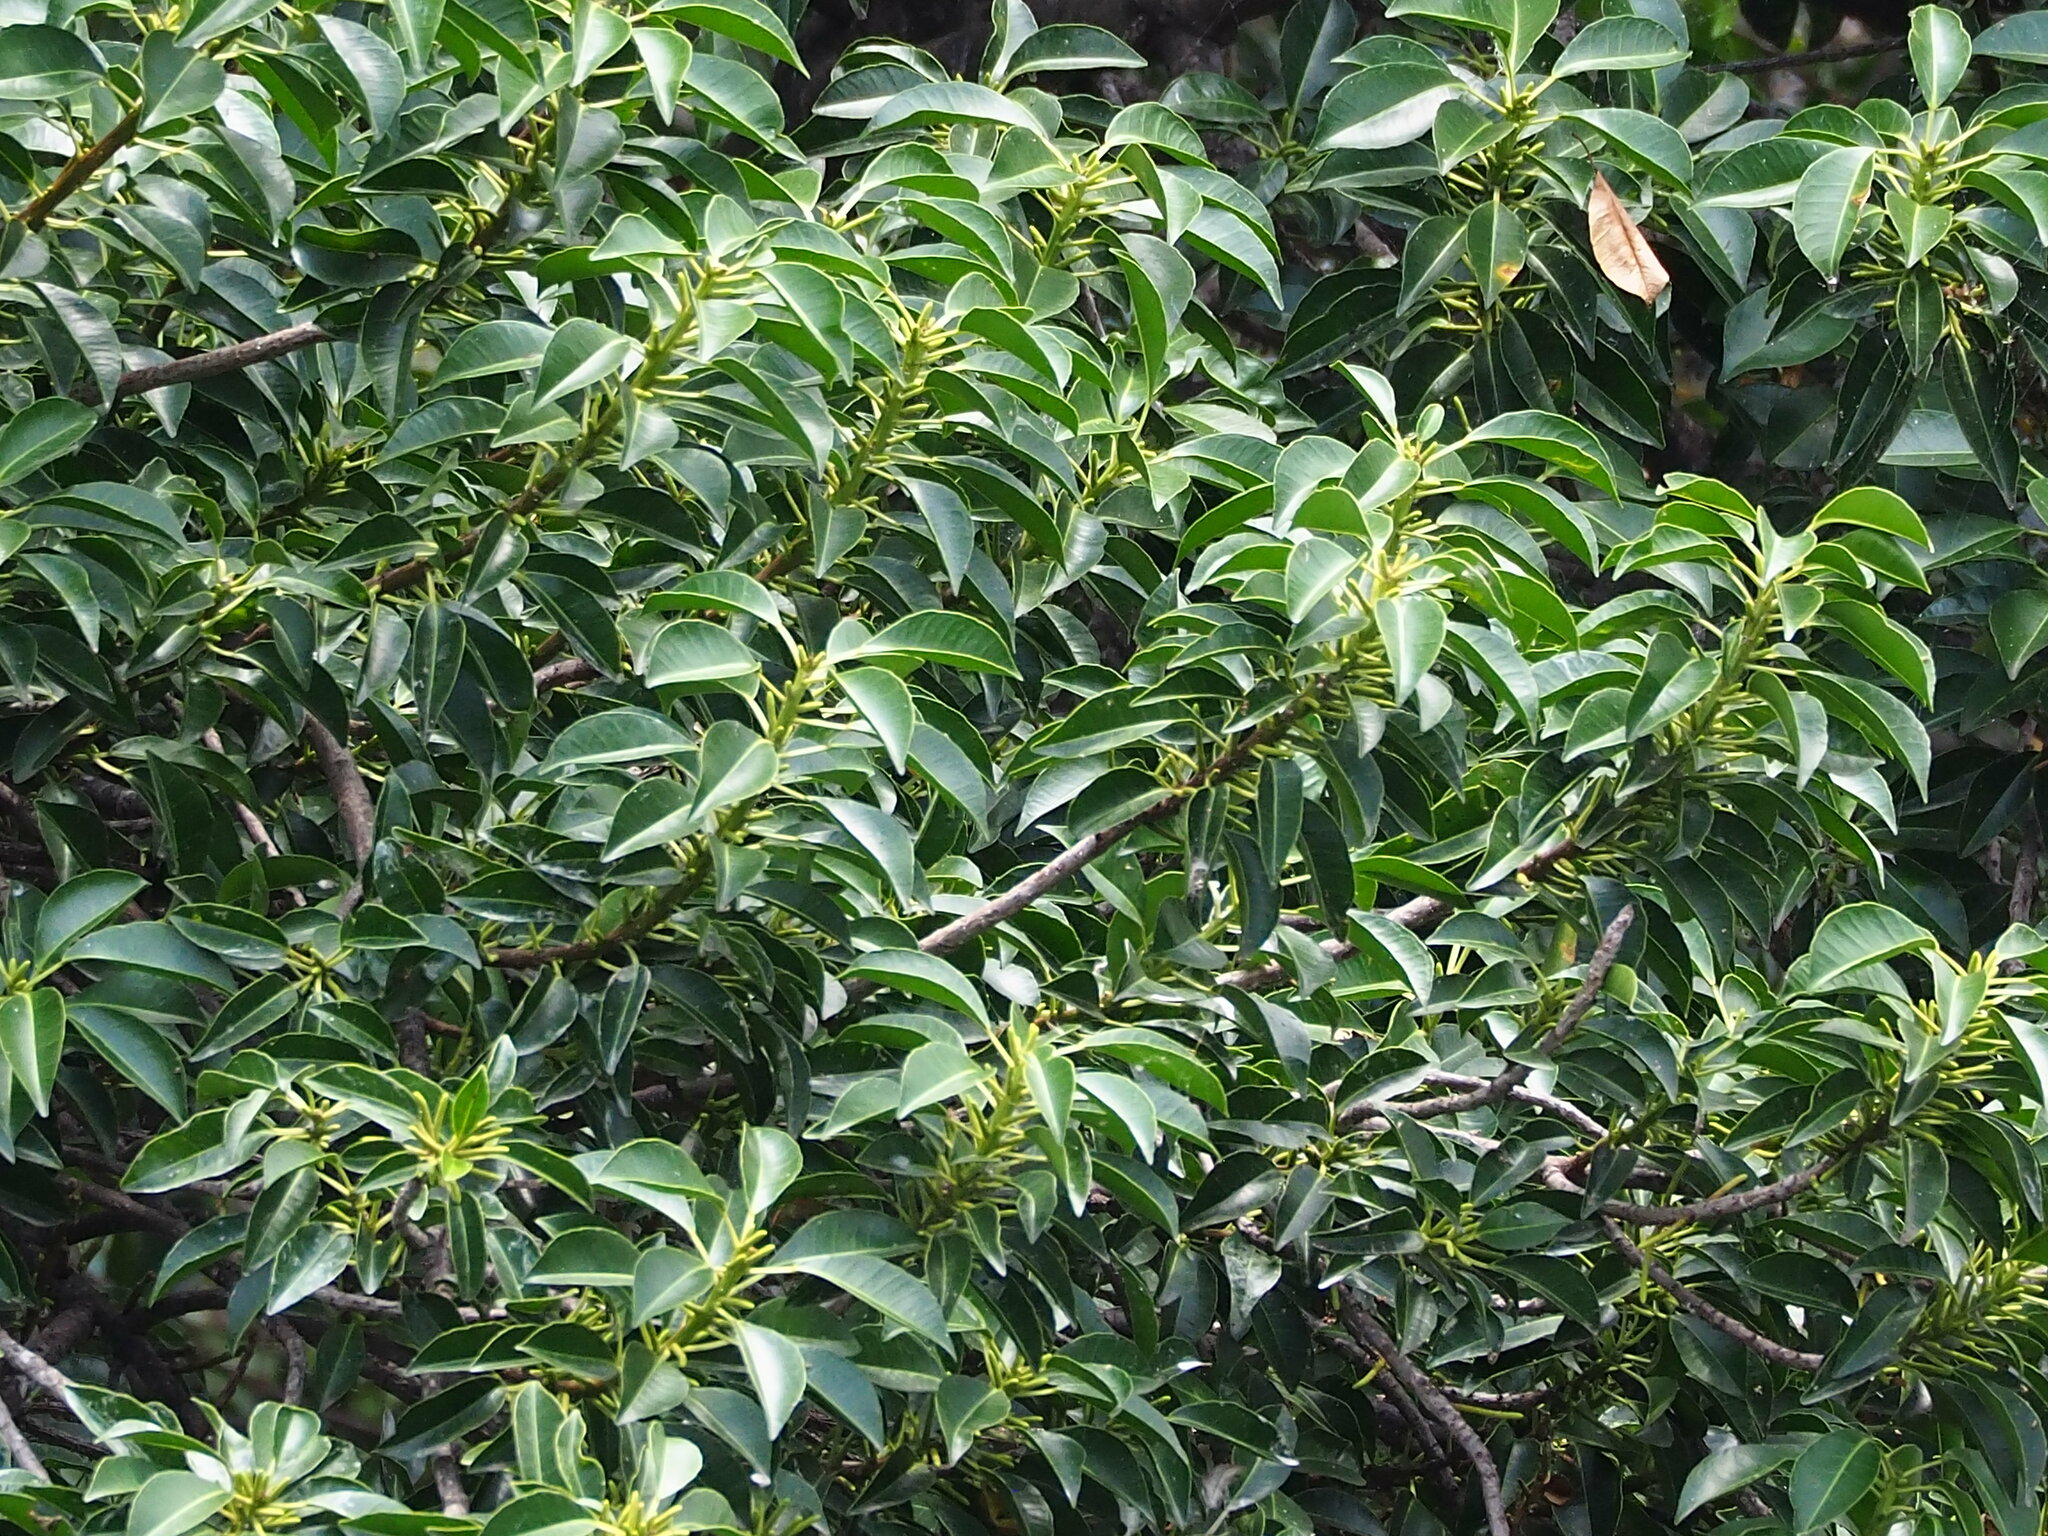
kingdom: Plantae
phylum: Tracheophyta
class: Magnoliopsida
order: Malpighiales
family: Euphorbiaceae
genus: Excoecaria
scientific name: Excoecaria agallocha
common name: River poisontree
